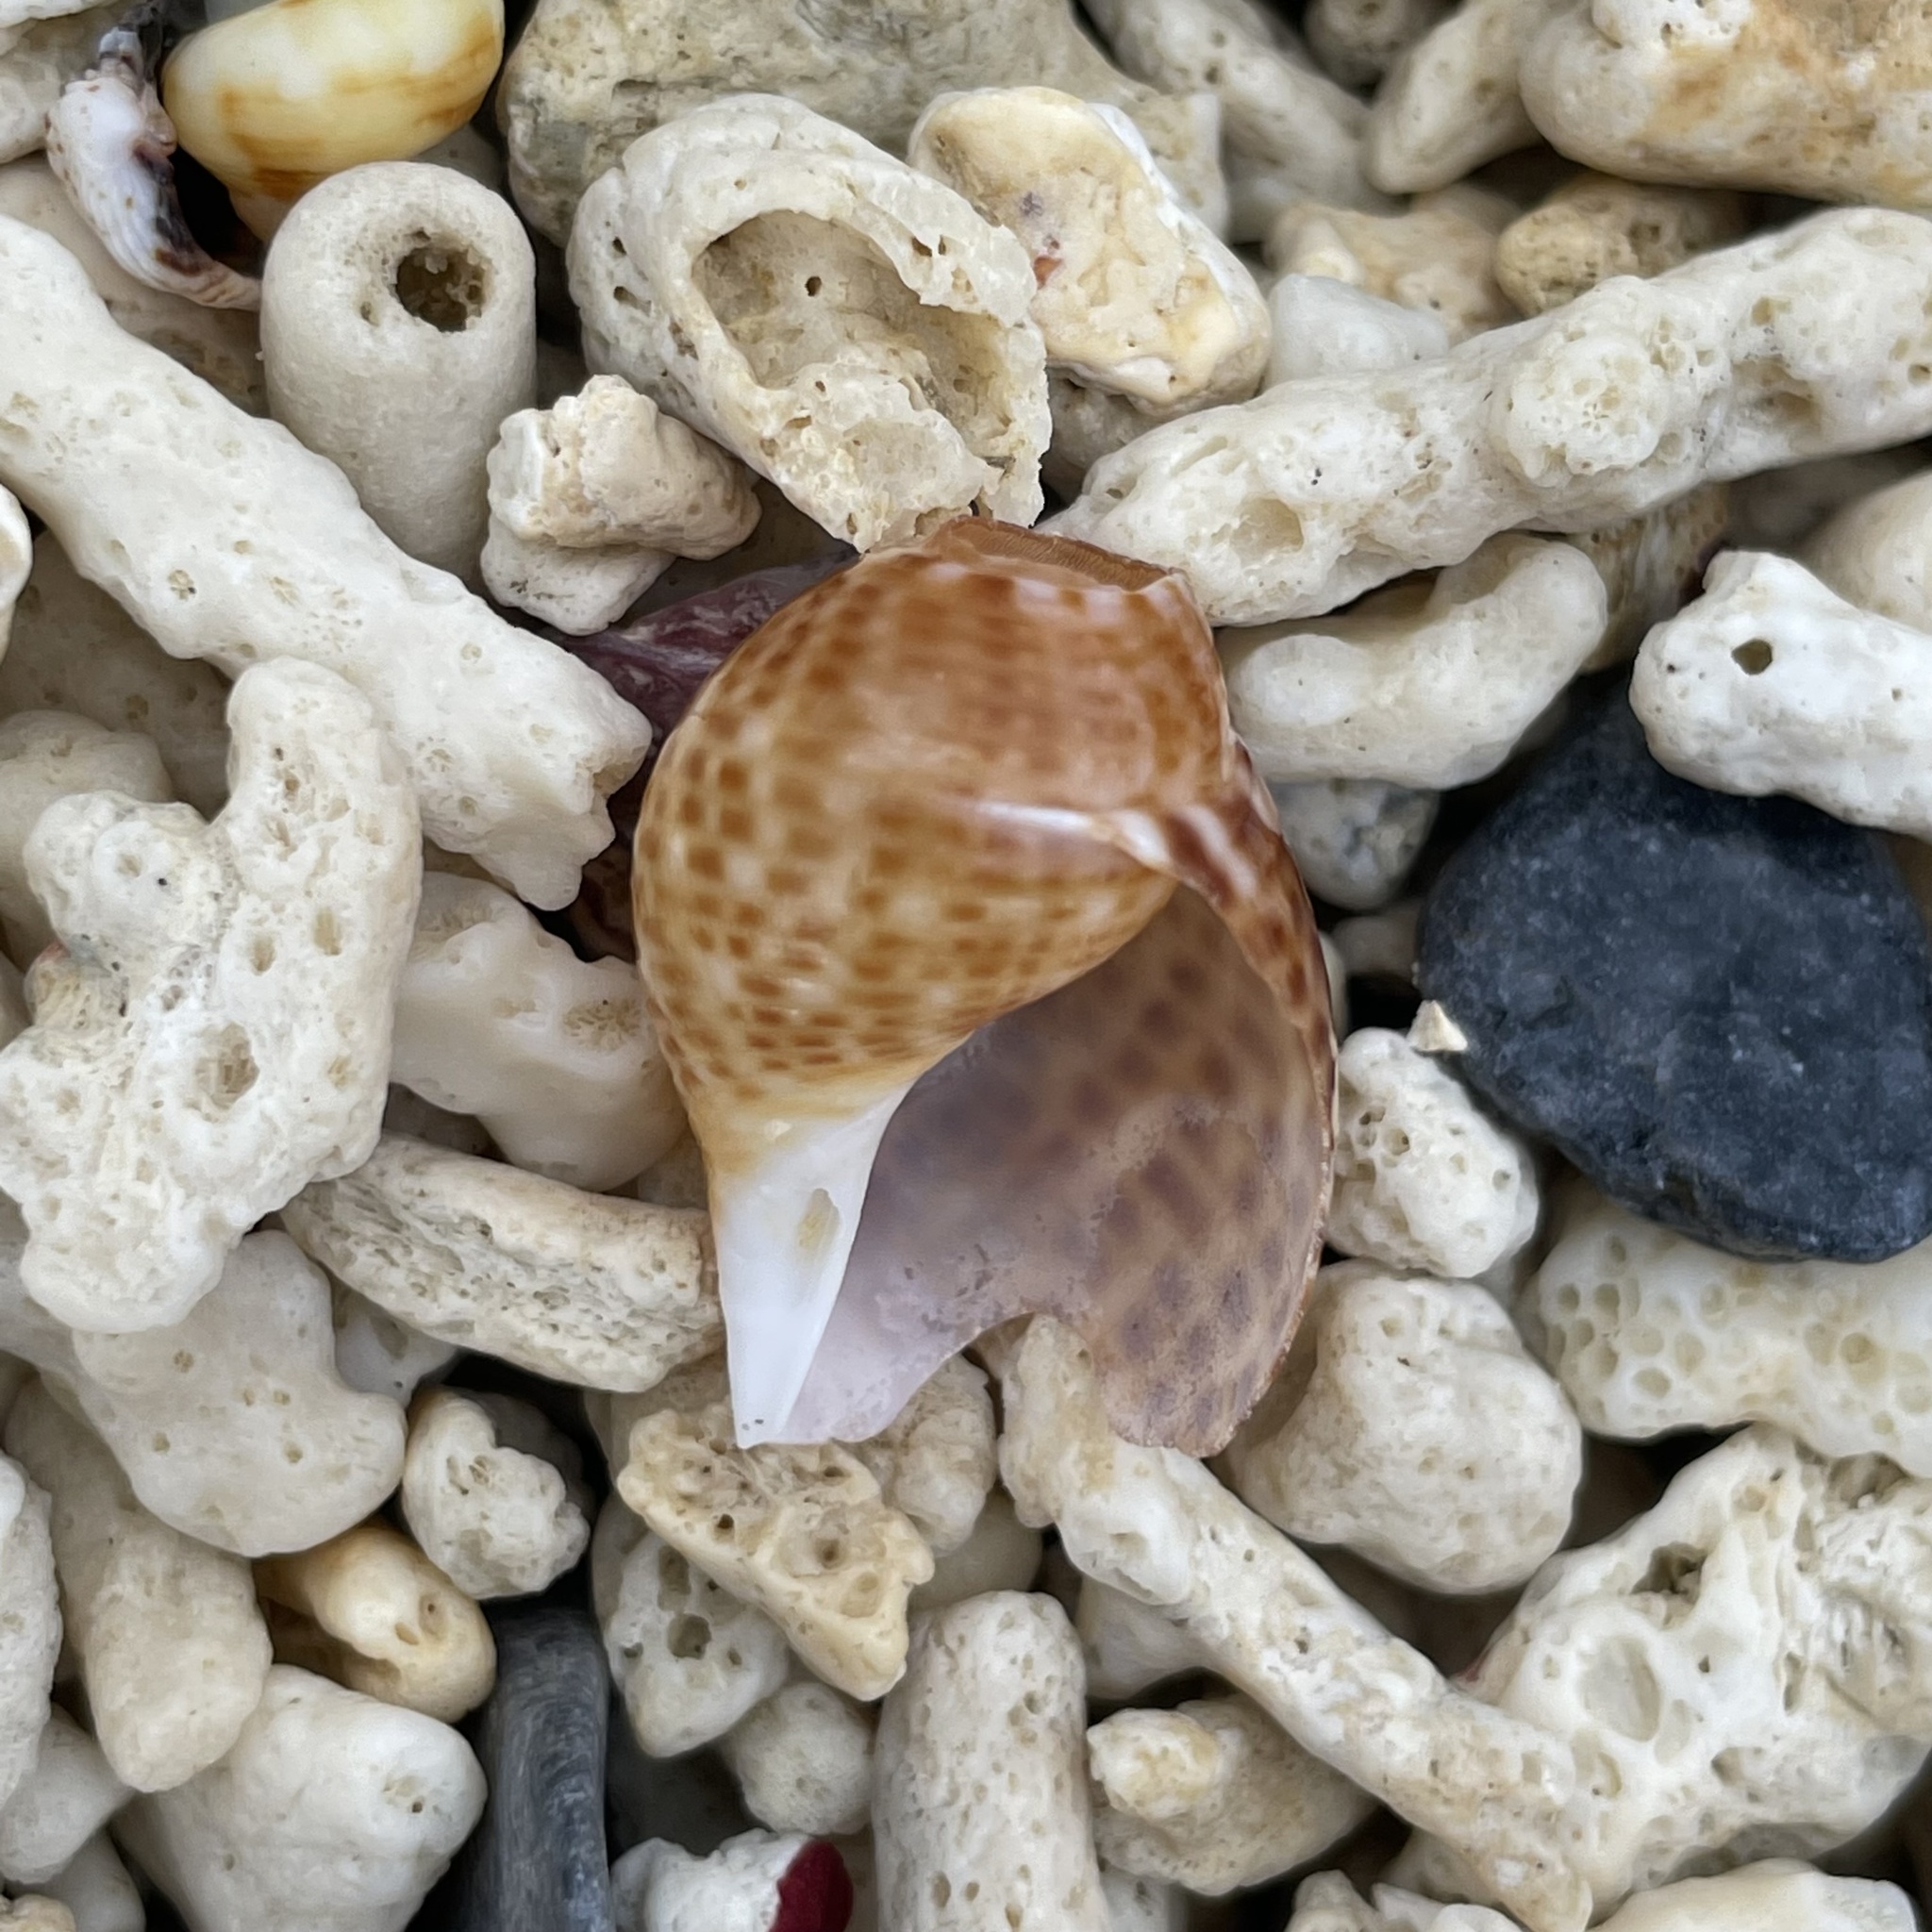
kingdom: Animalia
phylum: Mollusca
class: Gastropoda
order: Littorinimorpha
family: Tonnidae
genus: Tonna
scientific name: Tonna perdix
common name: Pacific partridge tun
